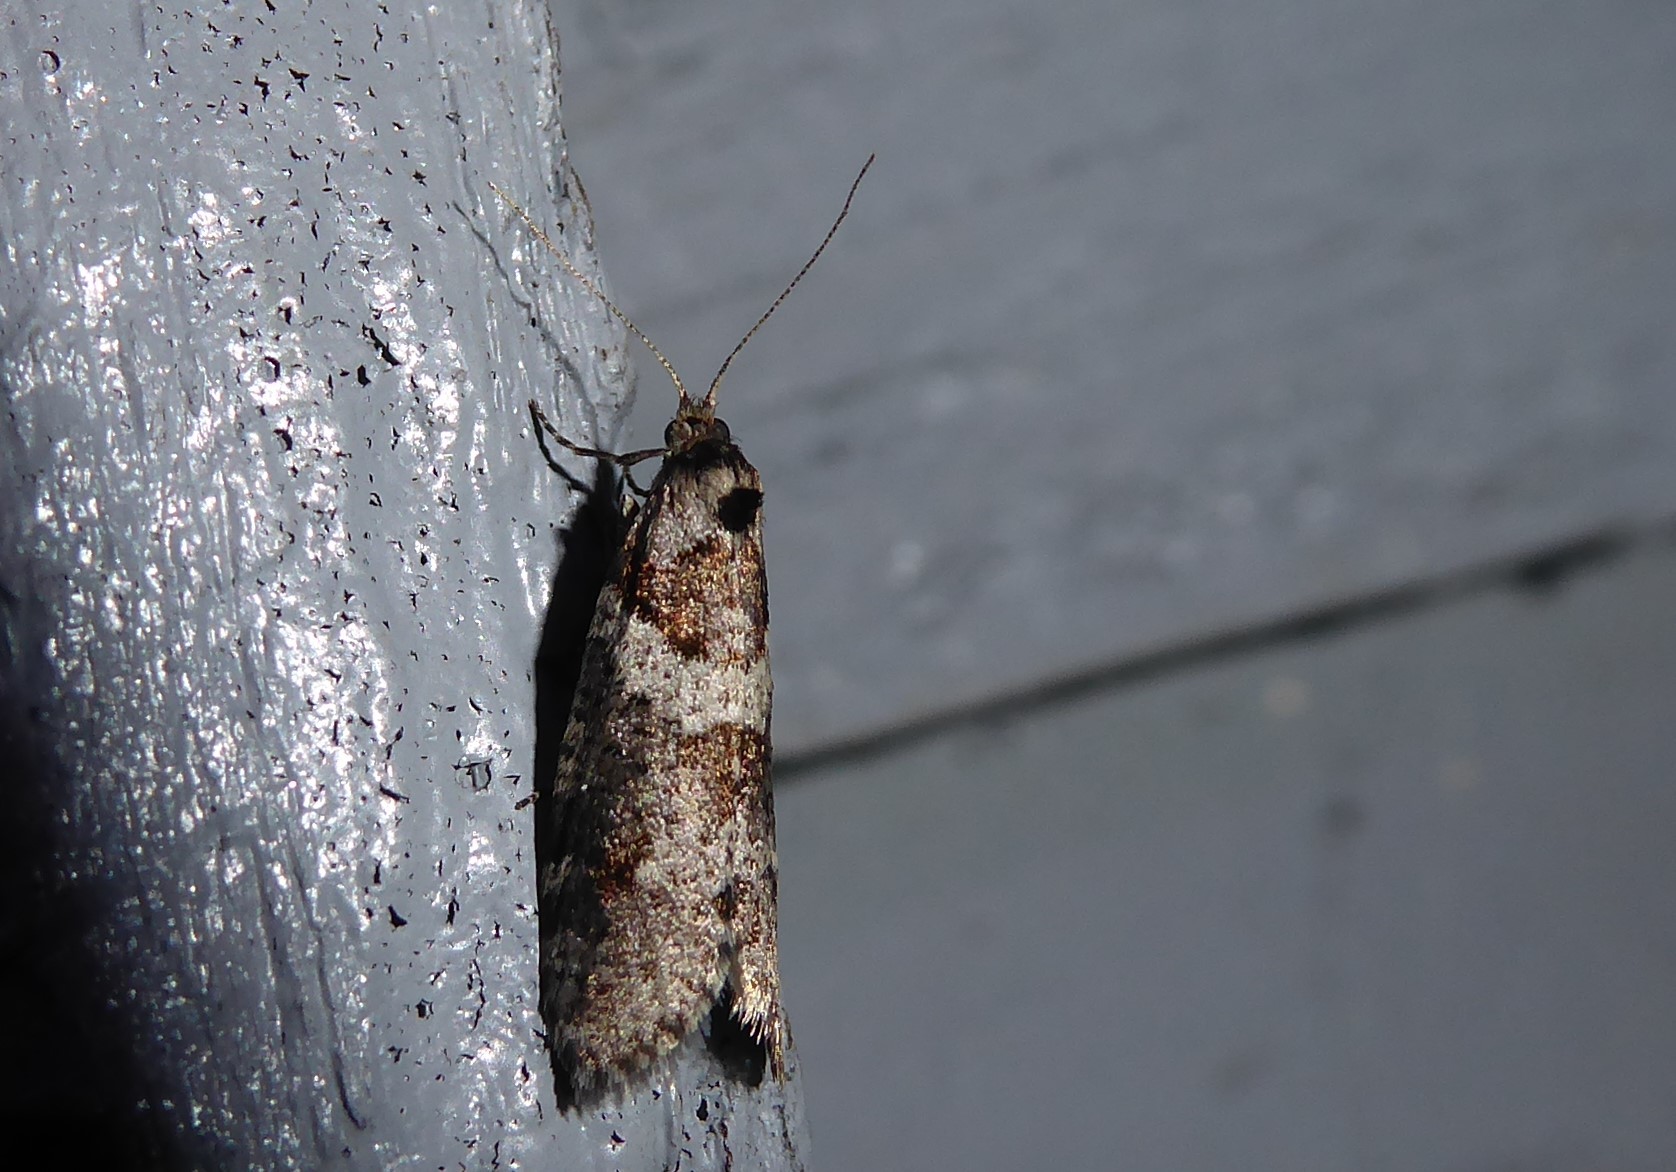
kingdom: Animalia
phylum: Arthropoda
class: Insecta
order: Lepidoptera
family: Psychidae
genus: Lepidoscia
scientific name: Lepidoscia heliochares
